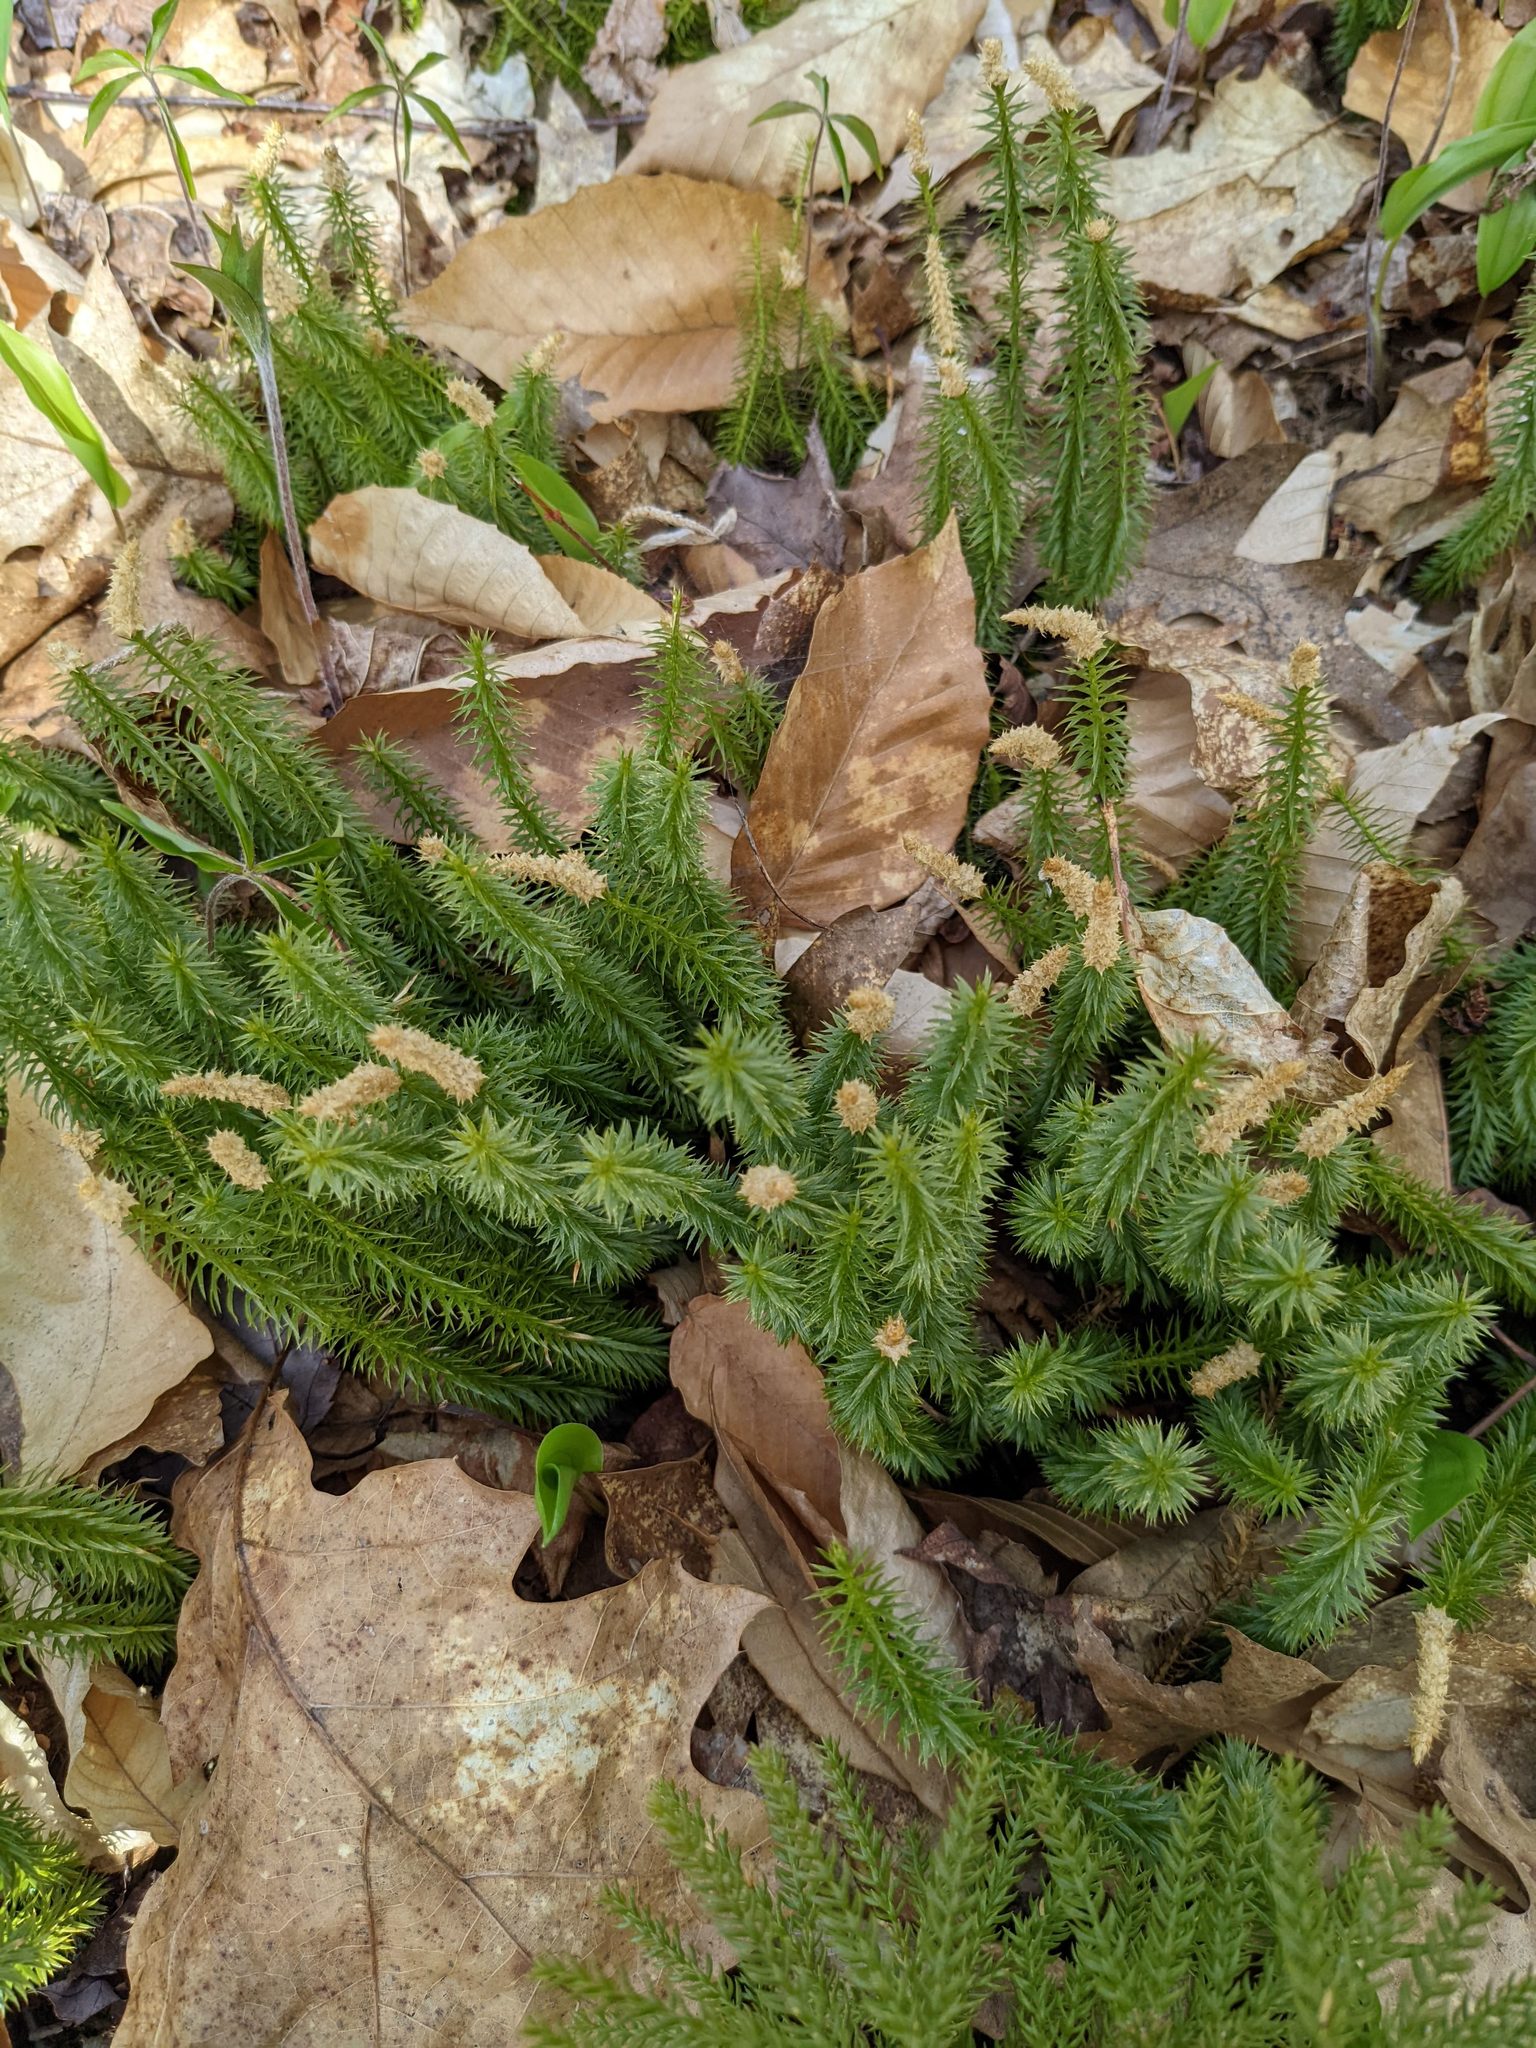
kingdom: Plantae
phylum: Tracheophyta
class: Lycopodiopsida
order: Lycopodiales
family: Lycopodiaceae
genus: Spinulum
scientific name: Spinulum annotinum
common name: Interrupted club-moss
